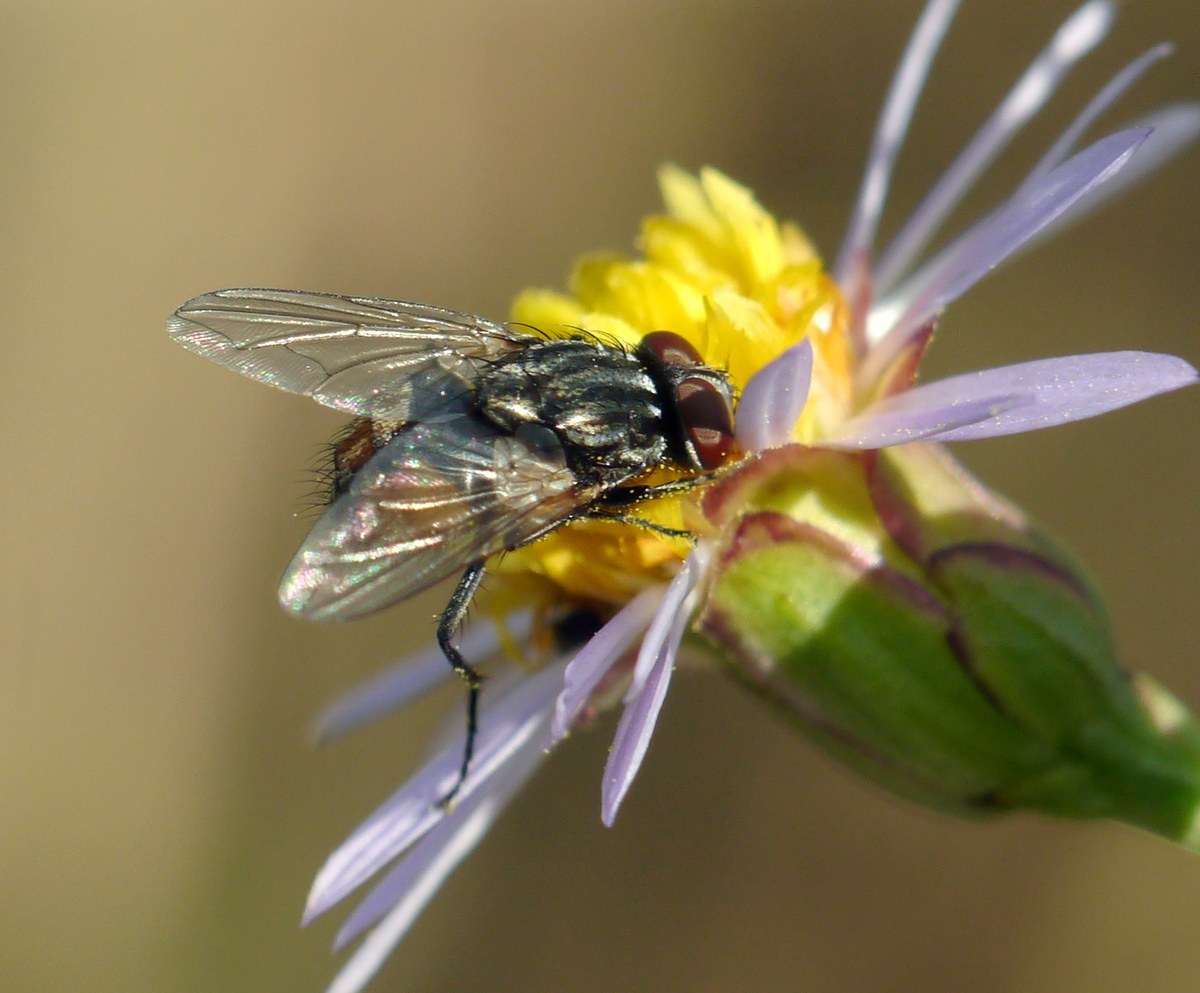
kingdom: Animalia
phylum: Arthropoda
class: Insecta
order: Diptera
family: Muscidae
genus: Musca
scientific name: Musca autumnalis
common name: Face fly
